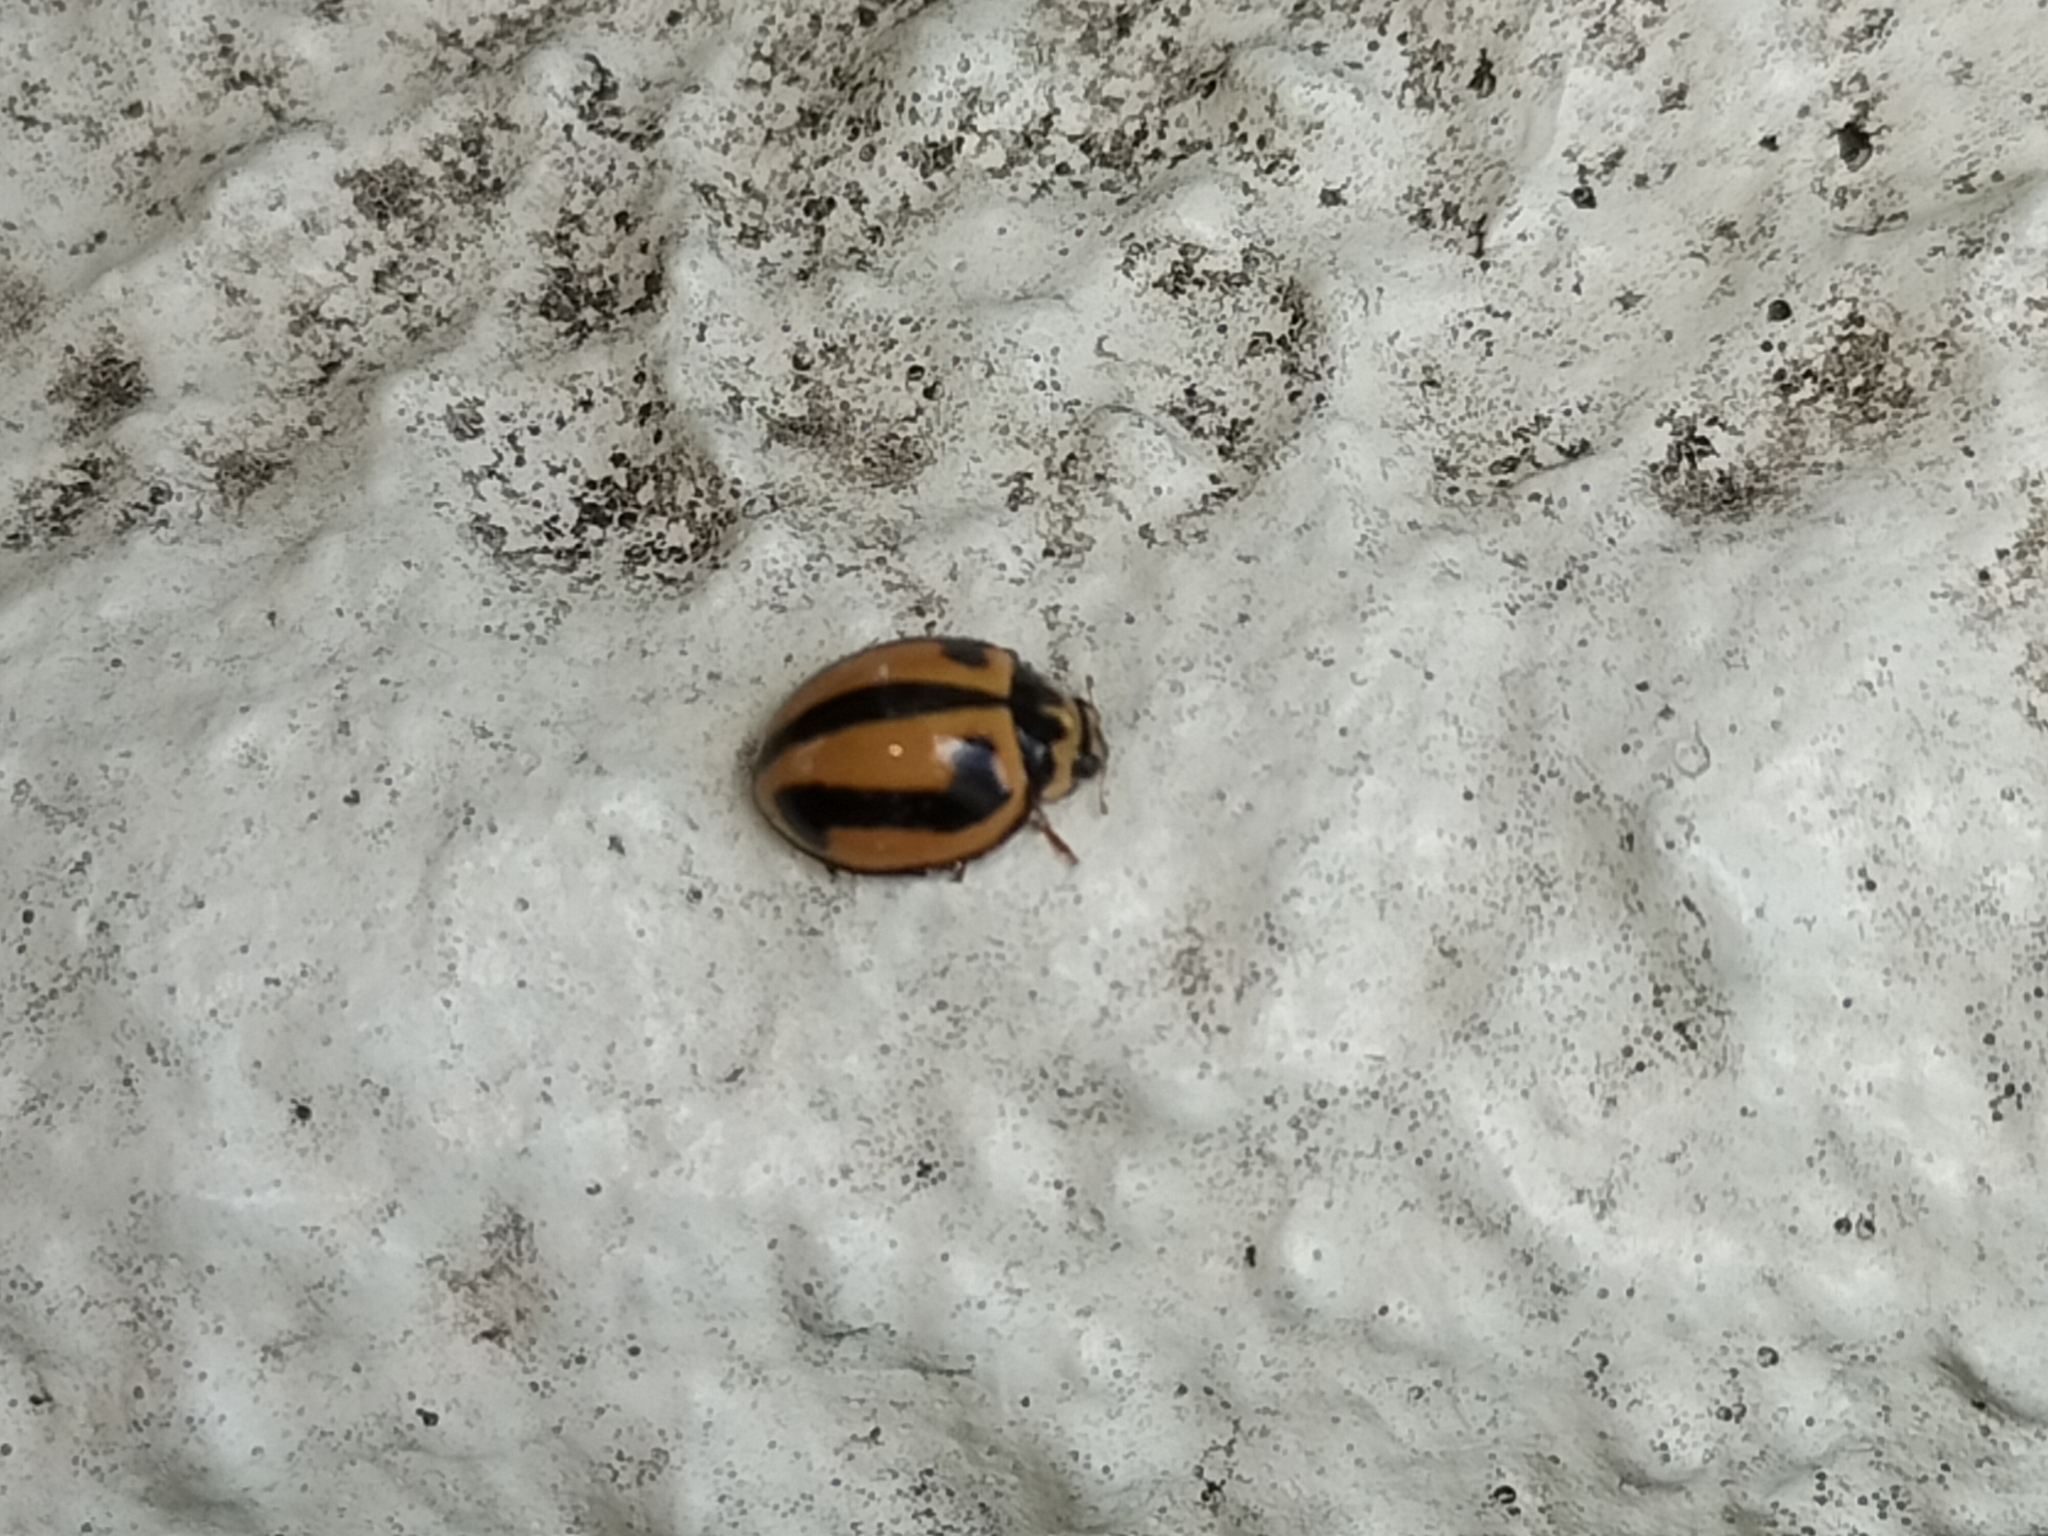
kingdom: Animalia
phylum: Arthropoda
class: Insecta
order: Coleoptera
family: Coccinellidae
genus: Micraspis
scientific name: Micraspis frenata
